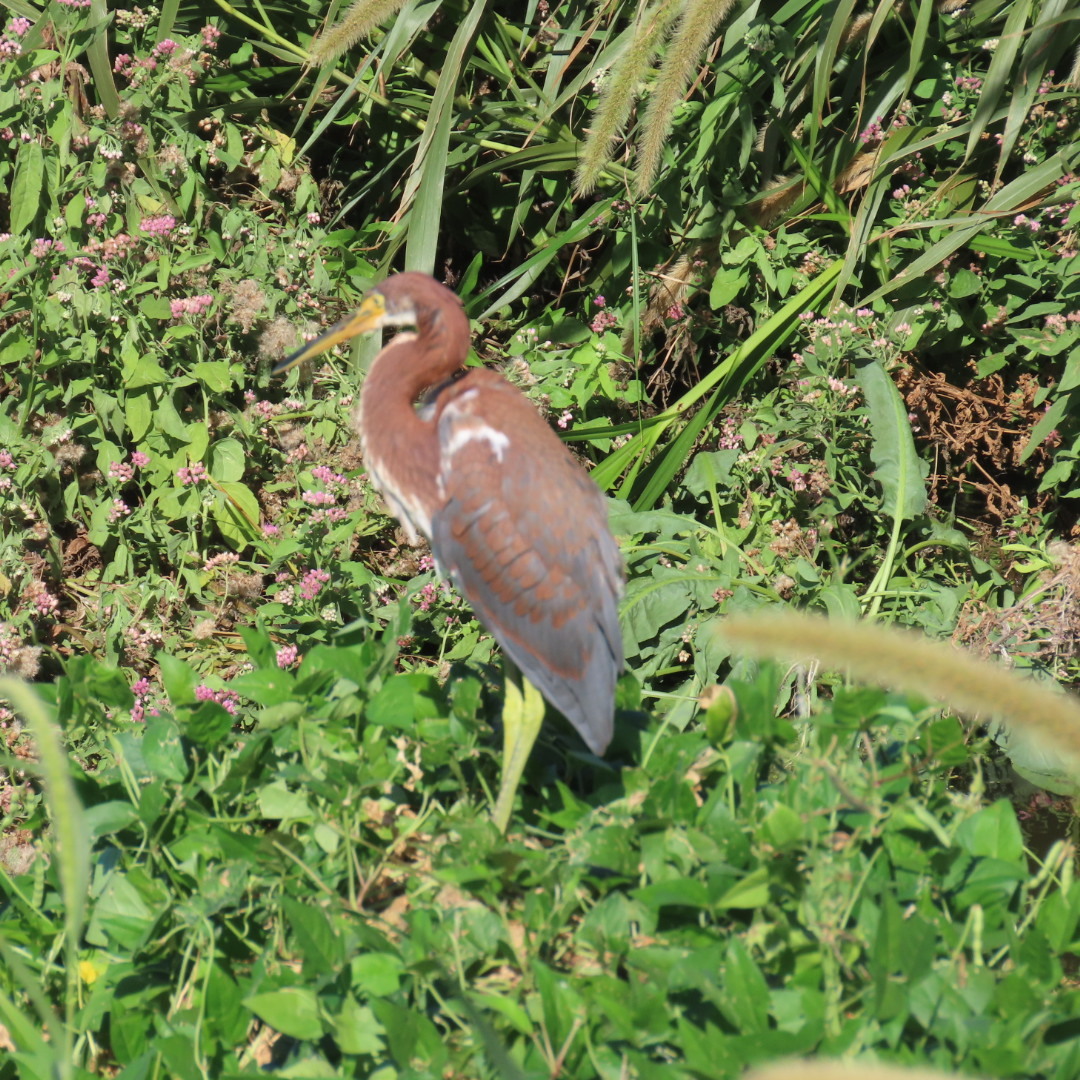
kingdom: Animalia
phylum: Chordata
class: Aves
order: Pelecaniformes
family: Ardeidae
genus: Egretta
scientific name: Egretta tricolor
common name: Tricolored heron
